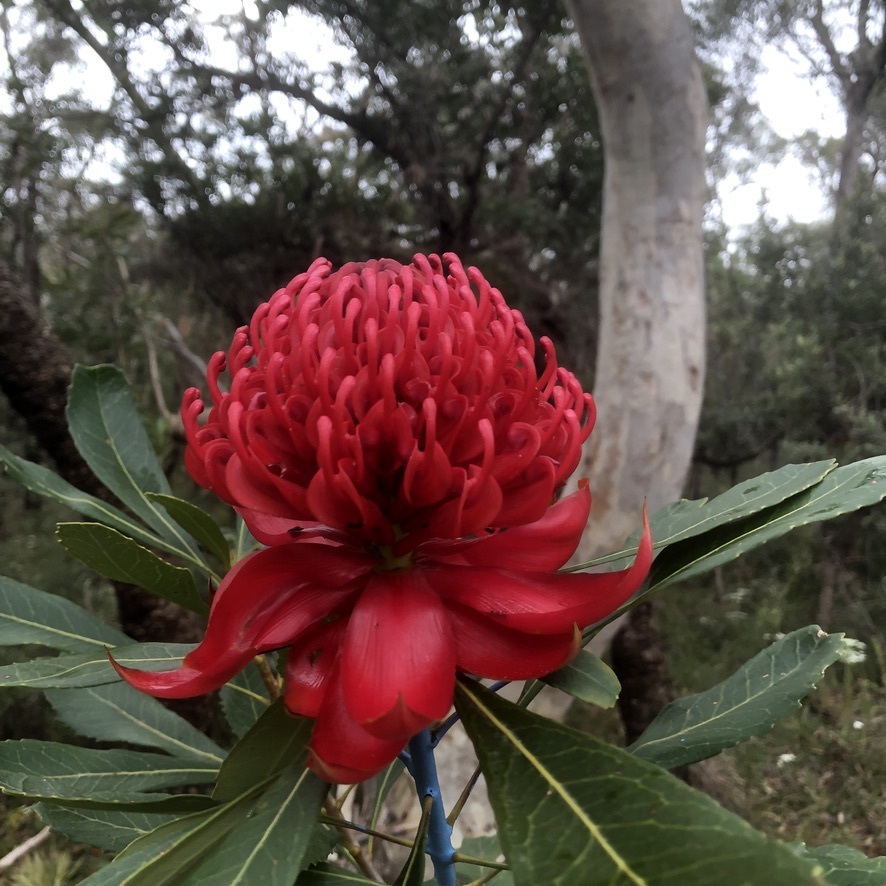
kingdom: Plantae
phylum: Tracheophyta
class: Magnoliopsida
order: Proteales
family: Proteaceae
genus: Telopea
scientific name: Telopea speciosissima
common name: New south wales waratah
